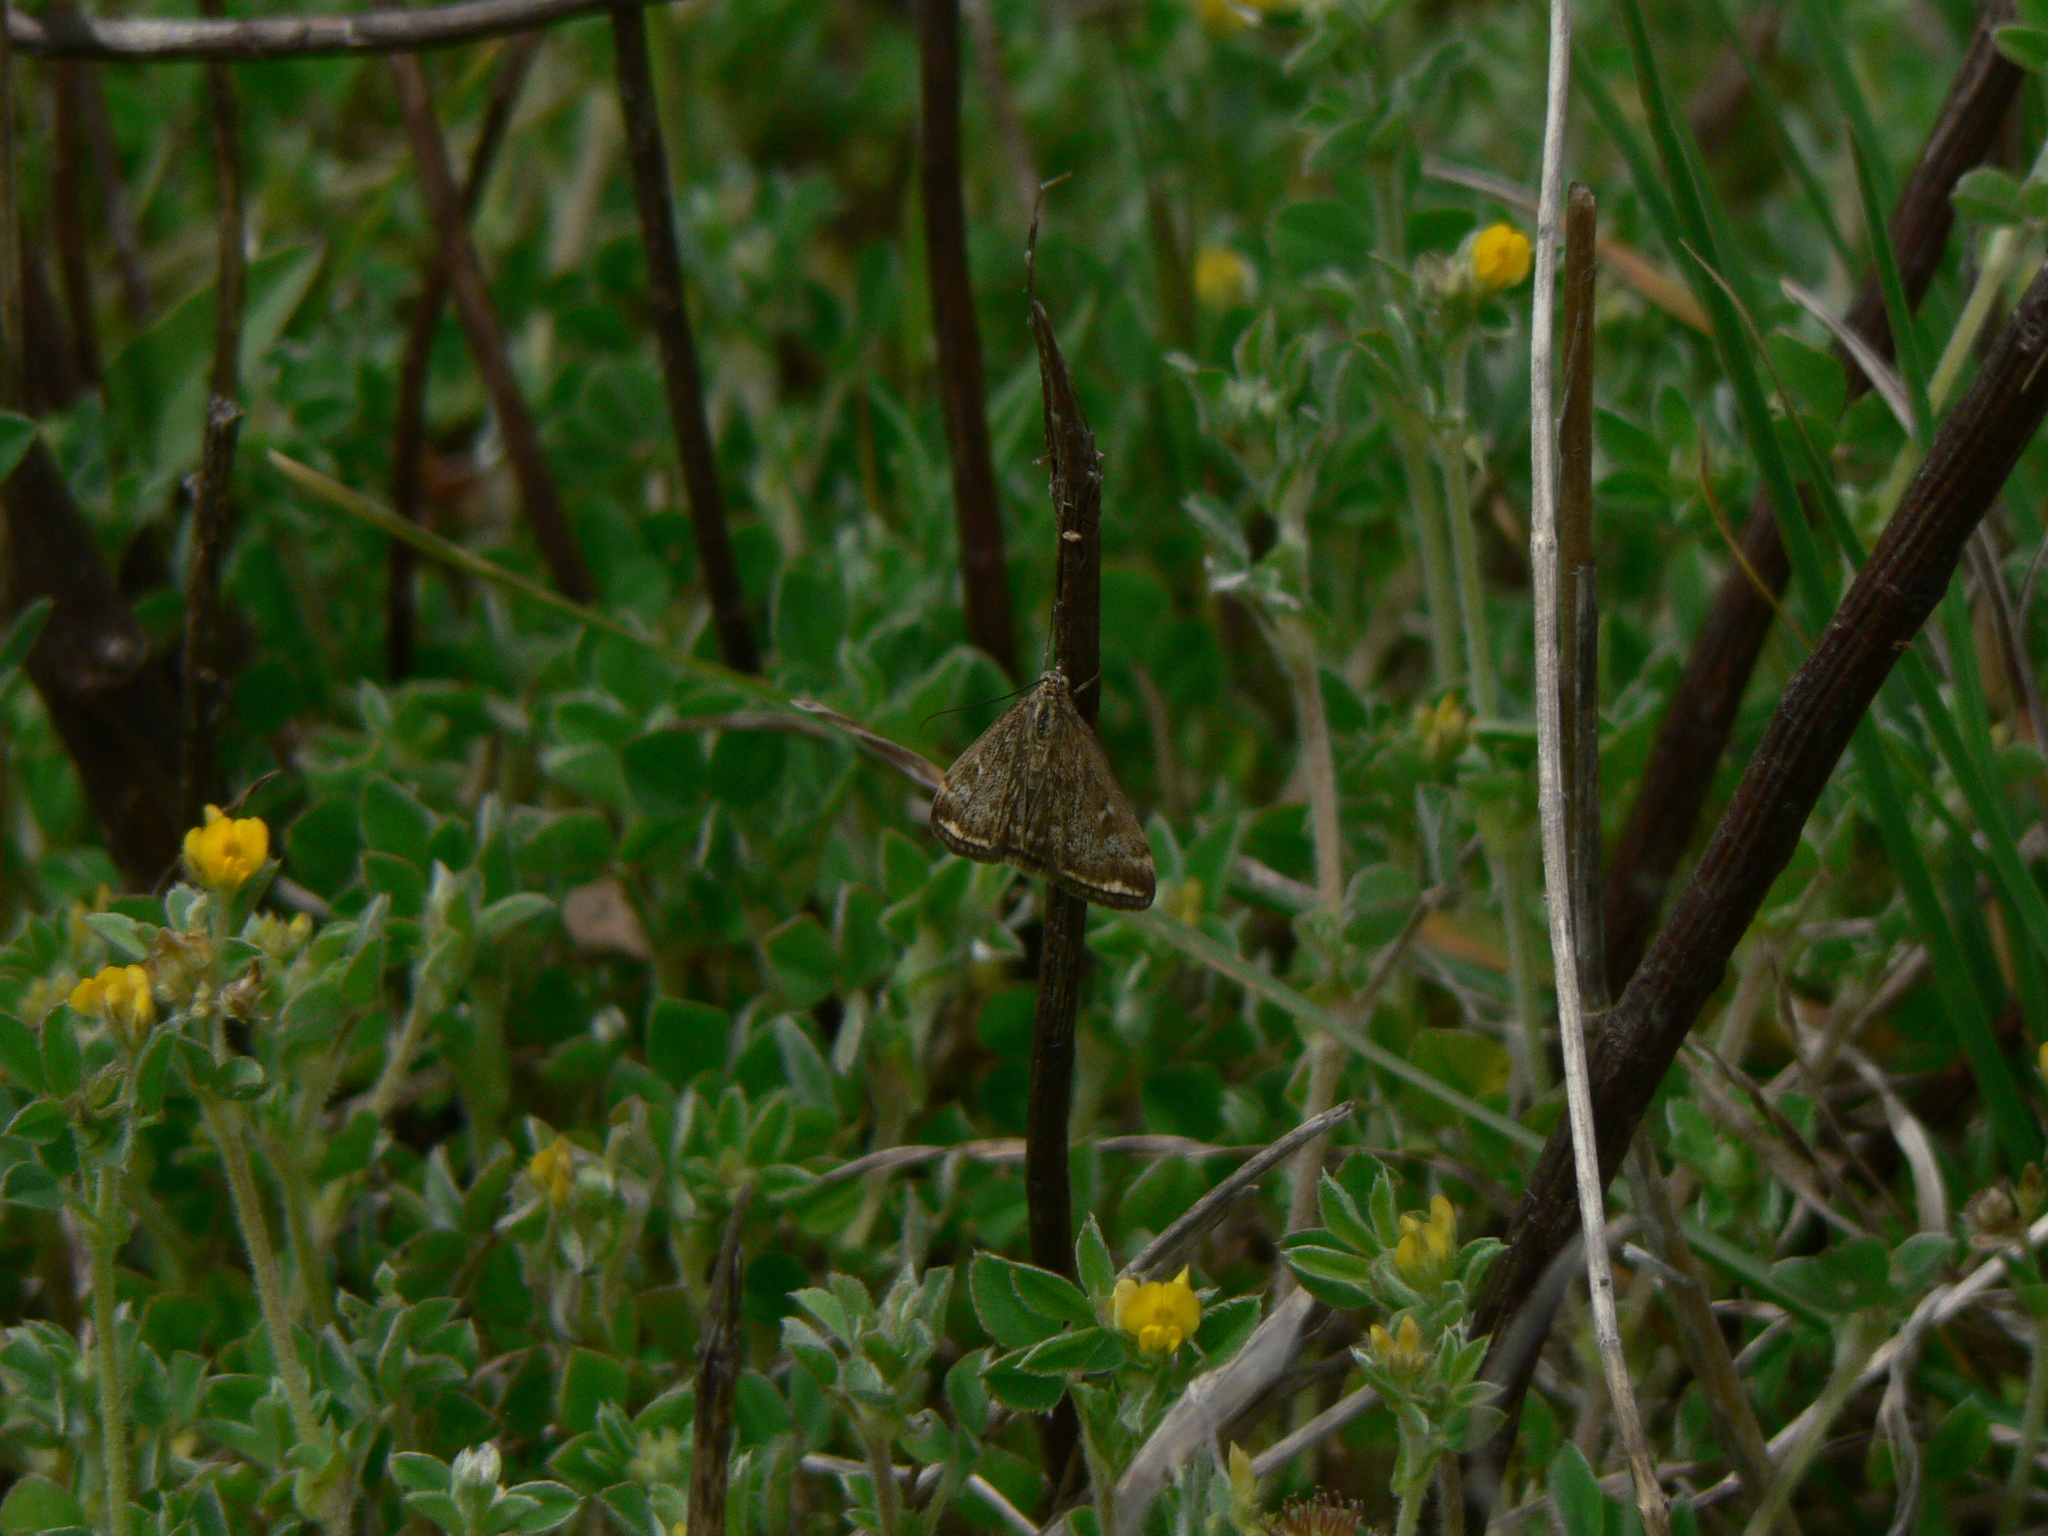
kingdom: Animalia
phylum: Arthropoda
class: Insecta
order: Lepidoptera
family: Crambidae
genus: Pyrausta
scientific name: Pyrausta despicata
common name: Straw-barred pearl
